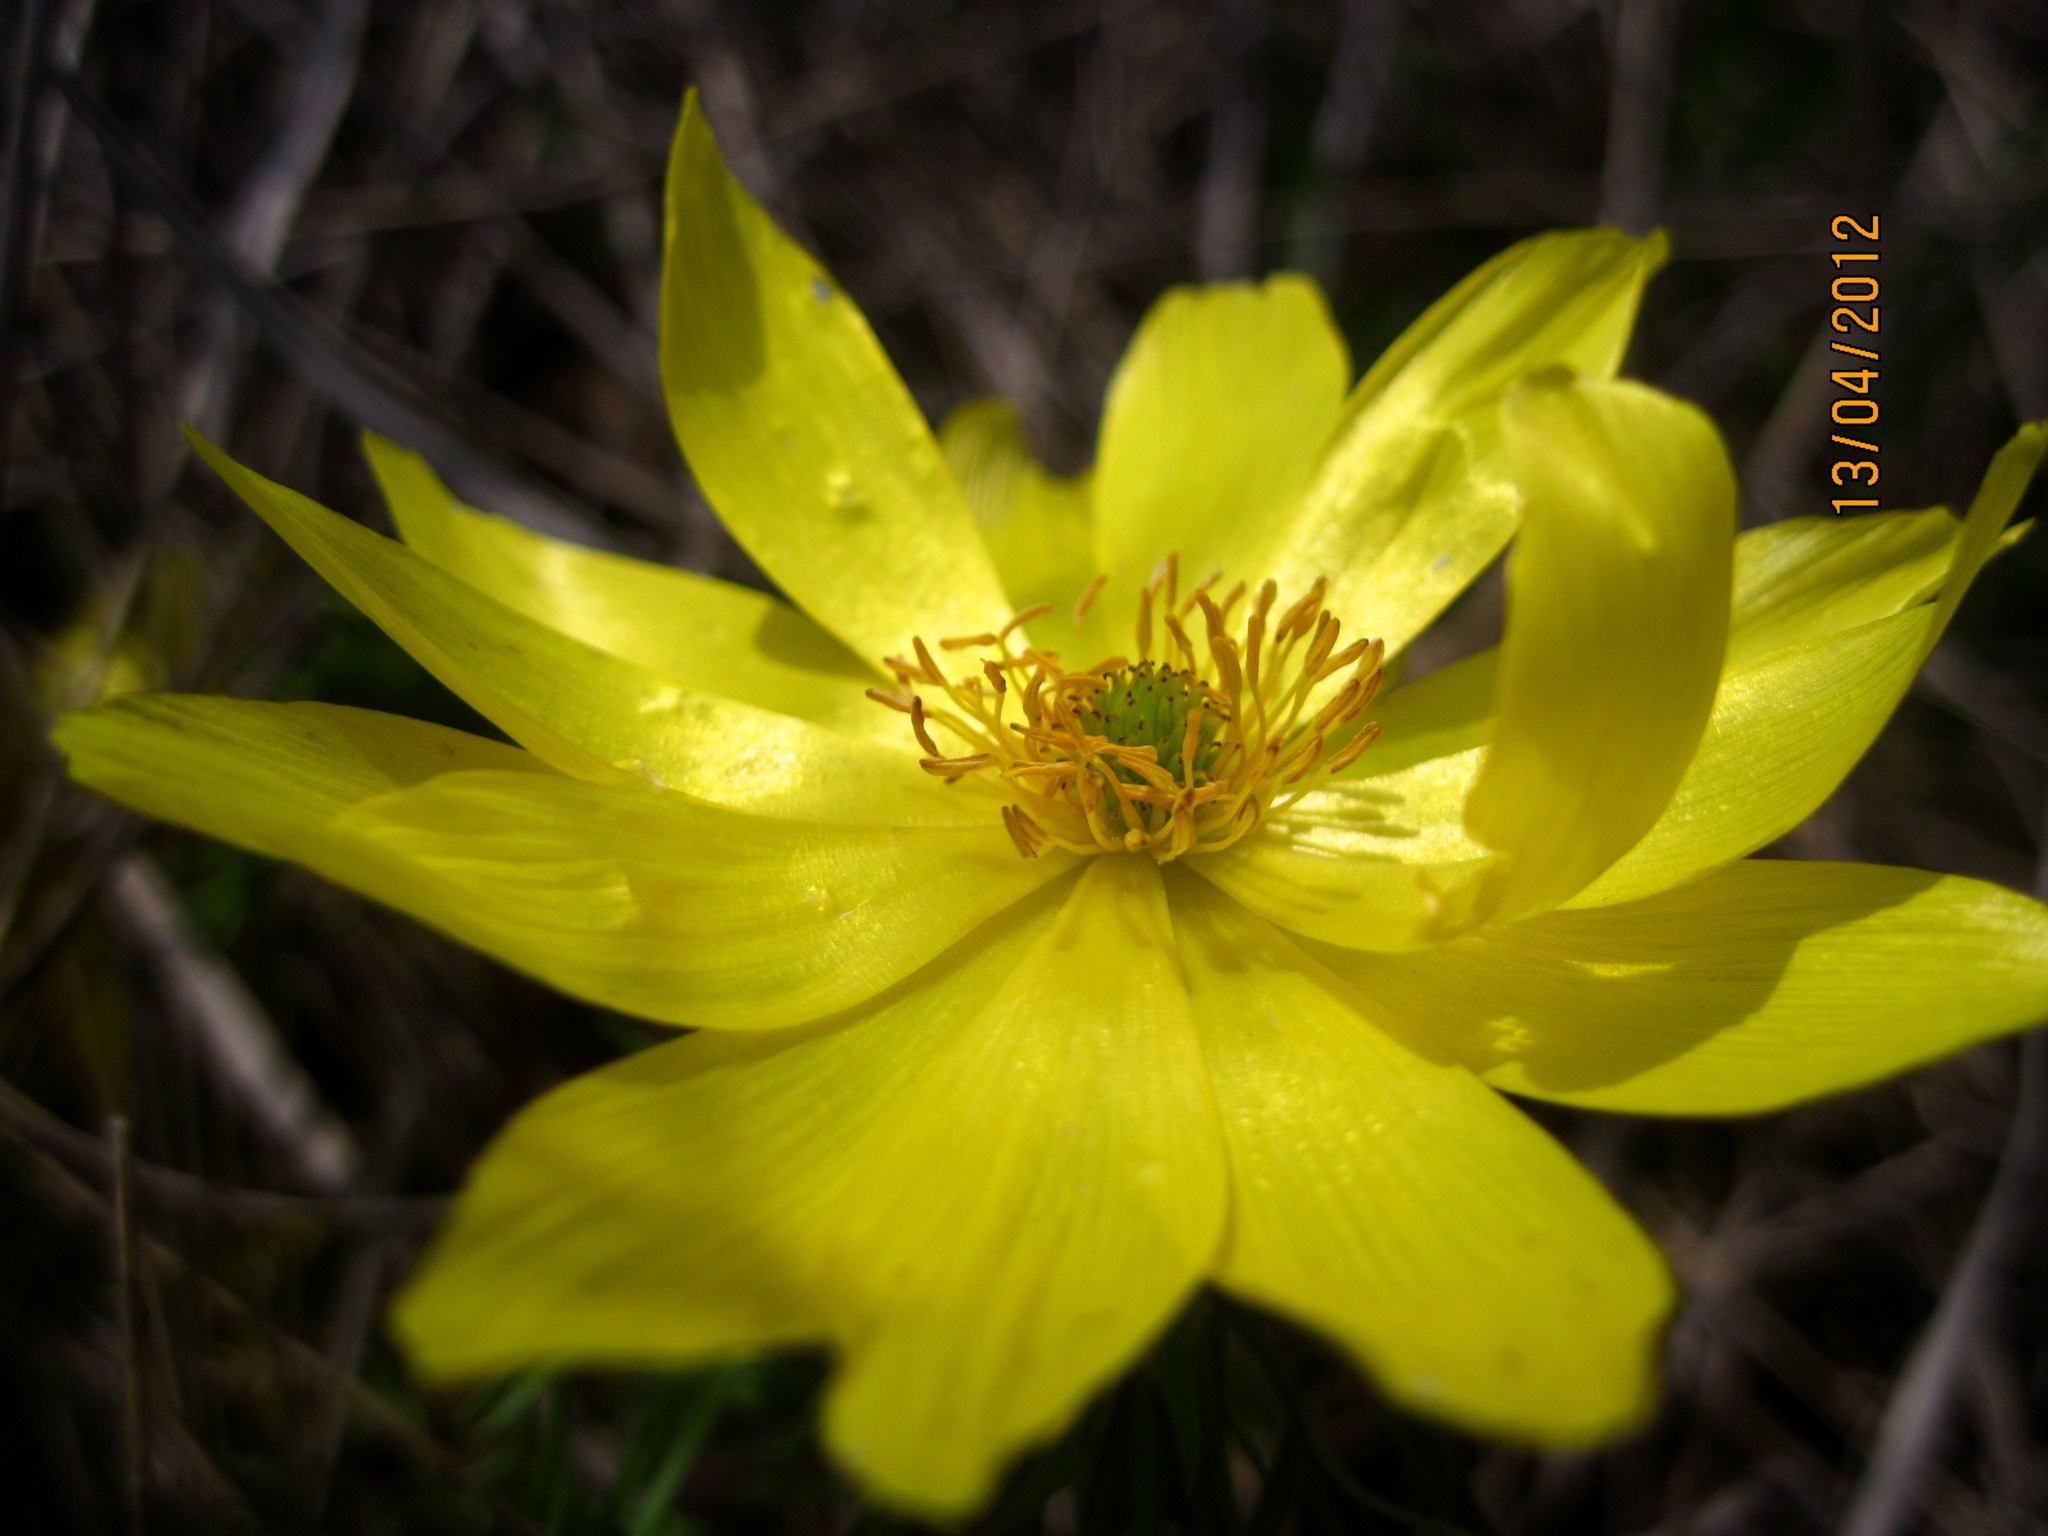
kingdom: Plantae
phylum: Tracheophyta
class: Magnoliopsida
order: Ranunculales
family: Ranunculaceae
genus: Adonis
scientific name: Adonis volgensis
